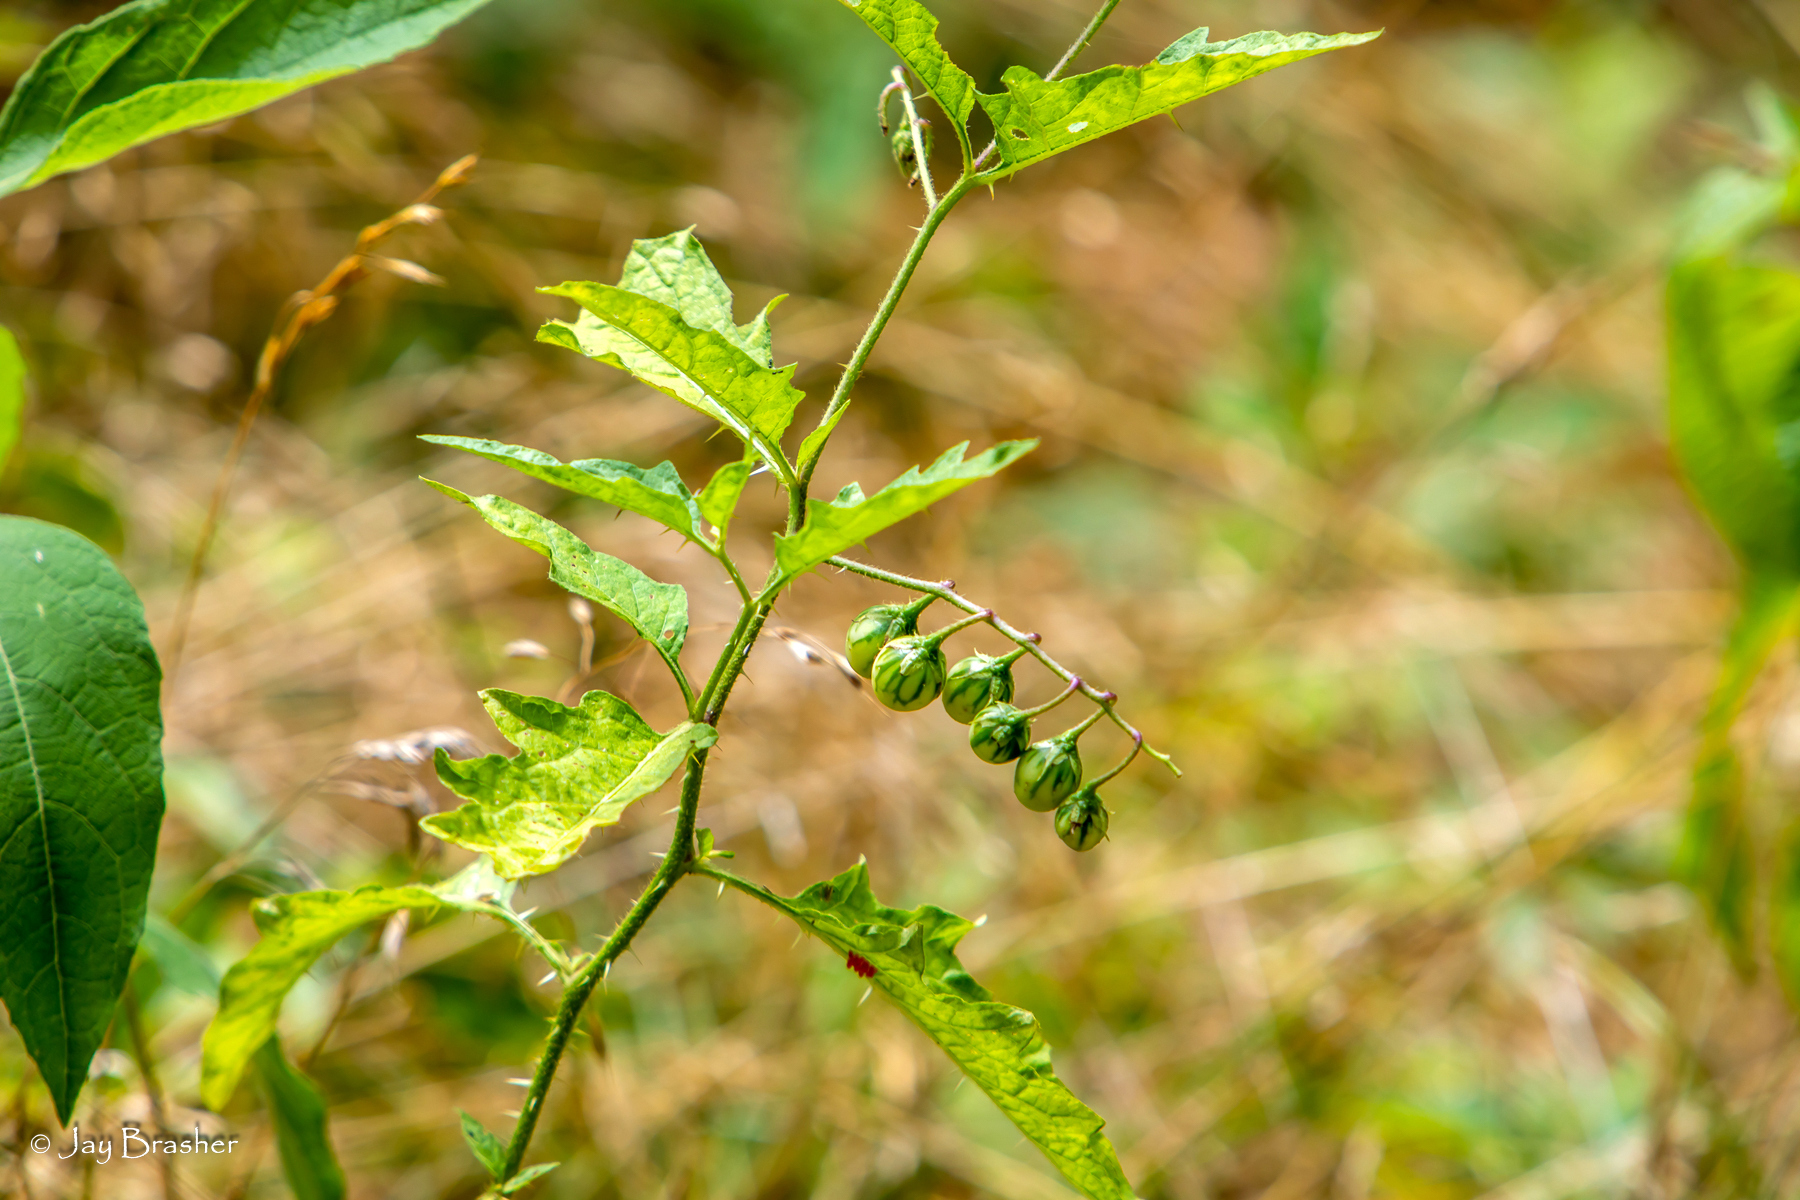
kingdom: Plantae
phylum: Tracheophyta
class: Magnoliopsida
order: Solanales
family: Solanaceae
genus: Solanum
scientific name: Solanum carolinense
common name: Horse-nettle
